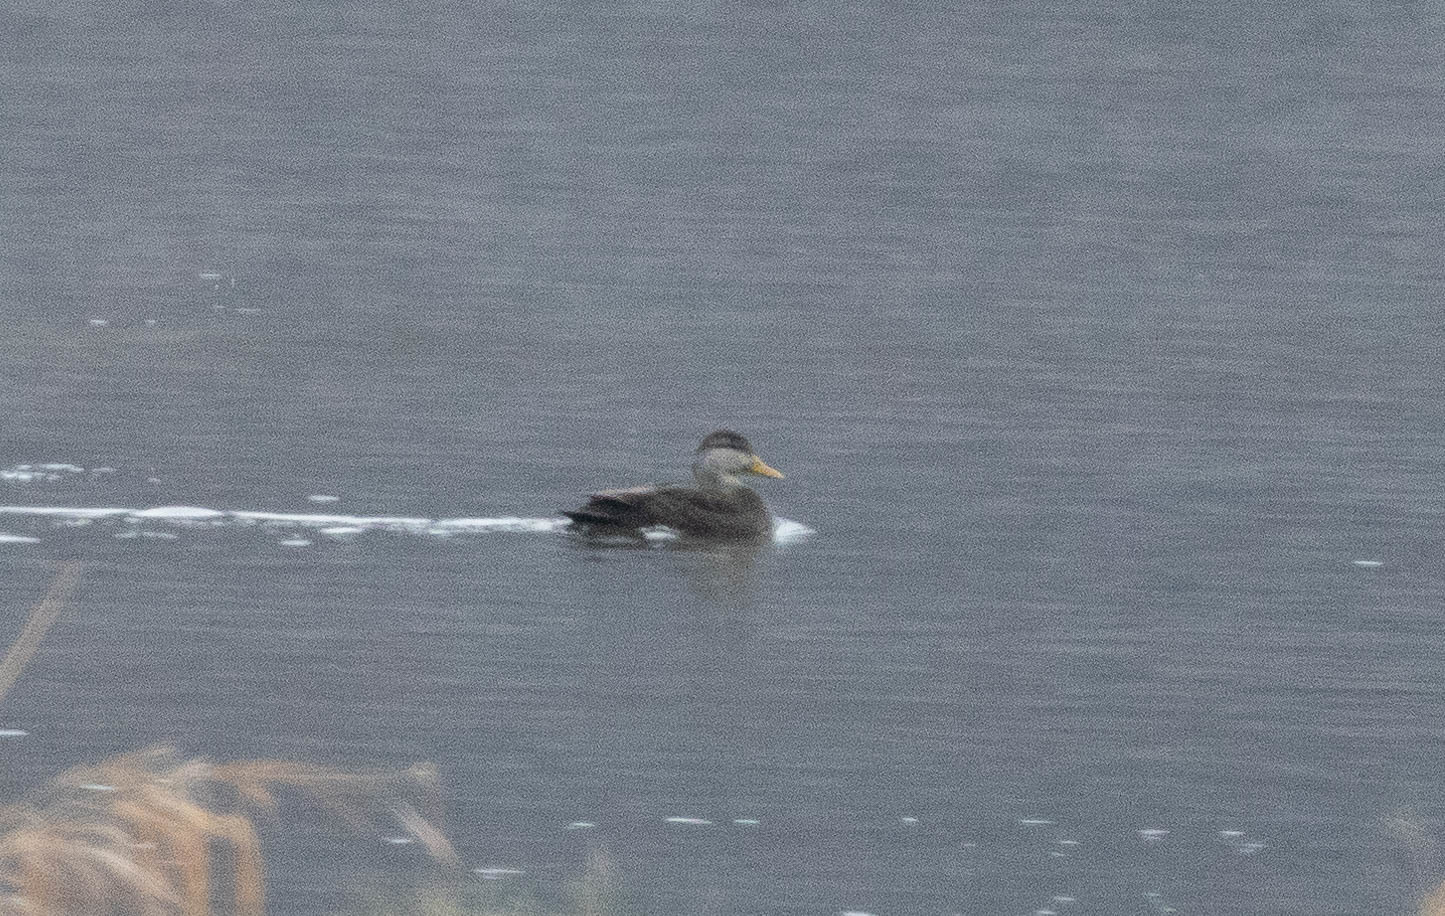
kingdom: Animalia
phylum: Chordata
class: Aves
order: Anseriformes
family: Anatidae
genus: Anas
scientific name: Anas rubripes
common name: American black duck
